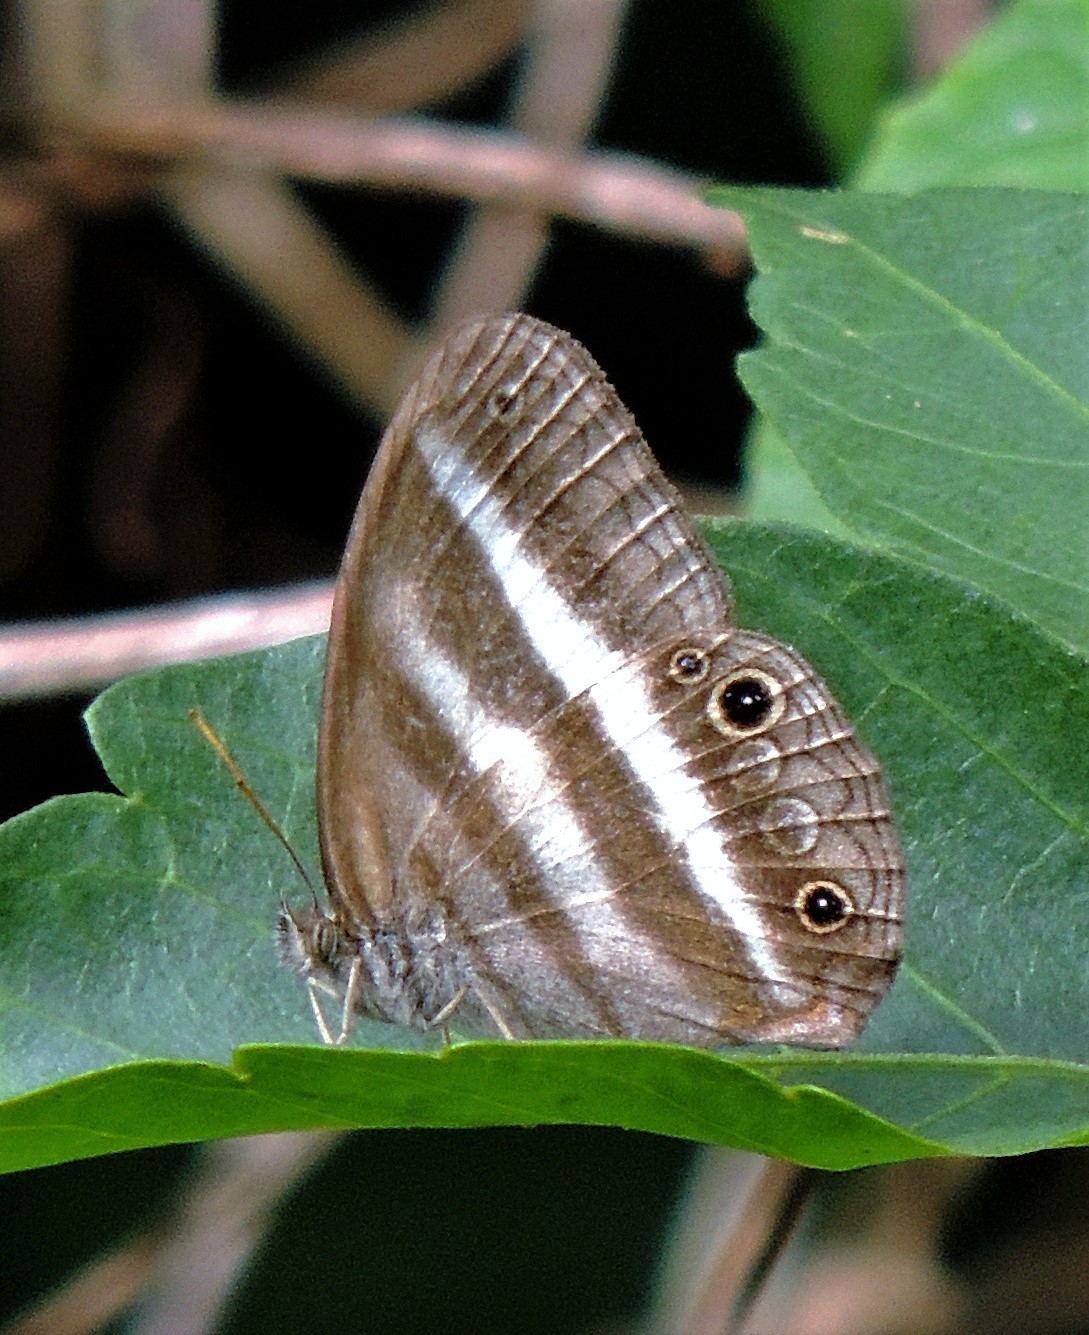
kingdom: Animalia
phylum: Arthropoda
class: Insecta
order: Lepidoptera
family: Nymphalidae
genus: Pareuptychia
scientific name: Pareuptychia summandosa
